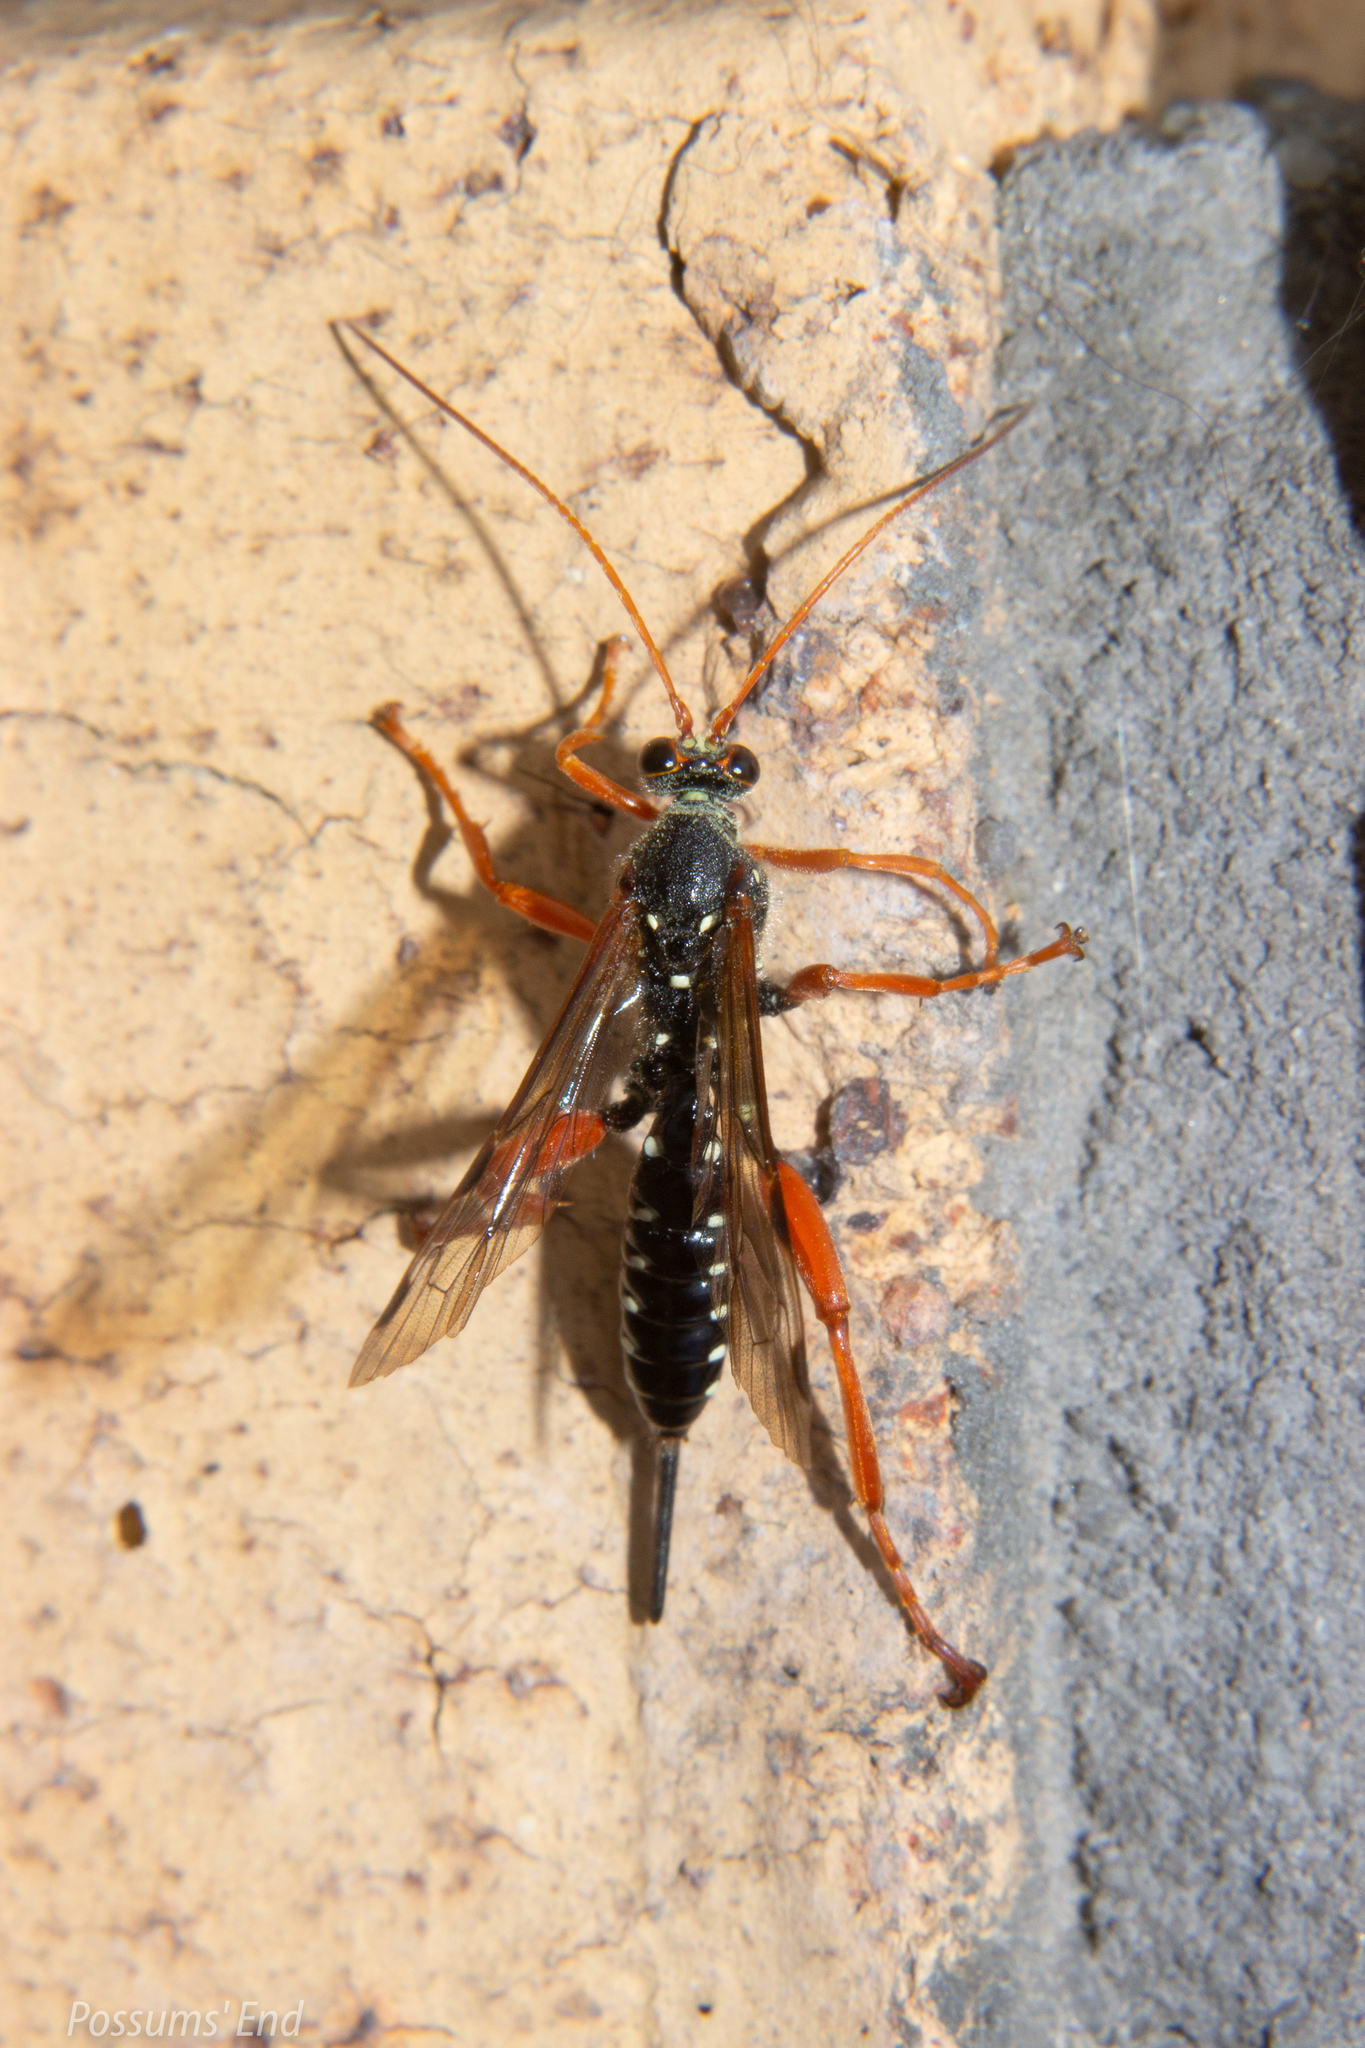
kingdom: Animalia
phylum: Arthropoda
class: Insecta
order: Hymenoptera
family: Ichneumonidae
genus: Echthromorpha
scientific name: Echthromorpha intricatoria
